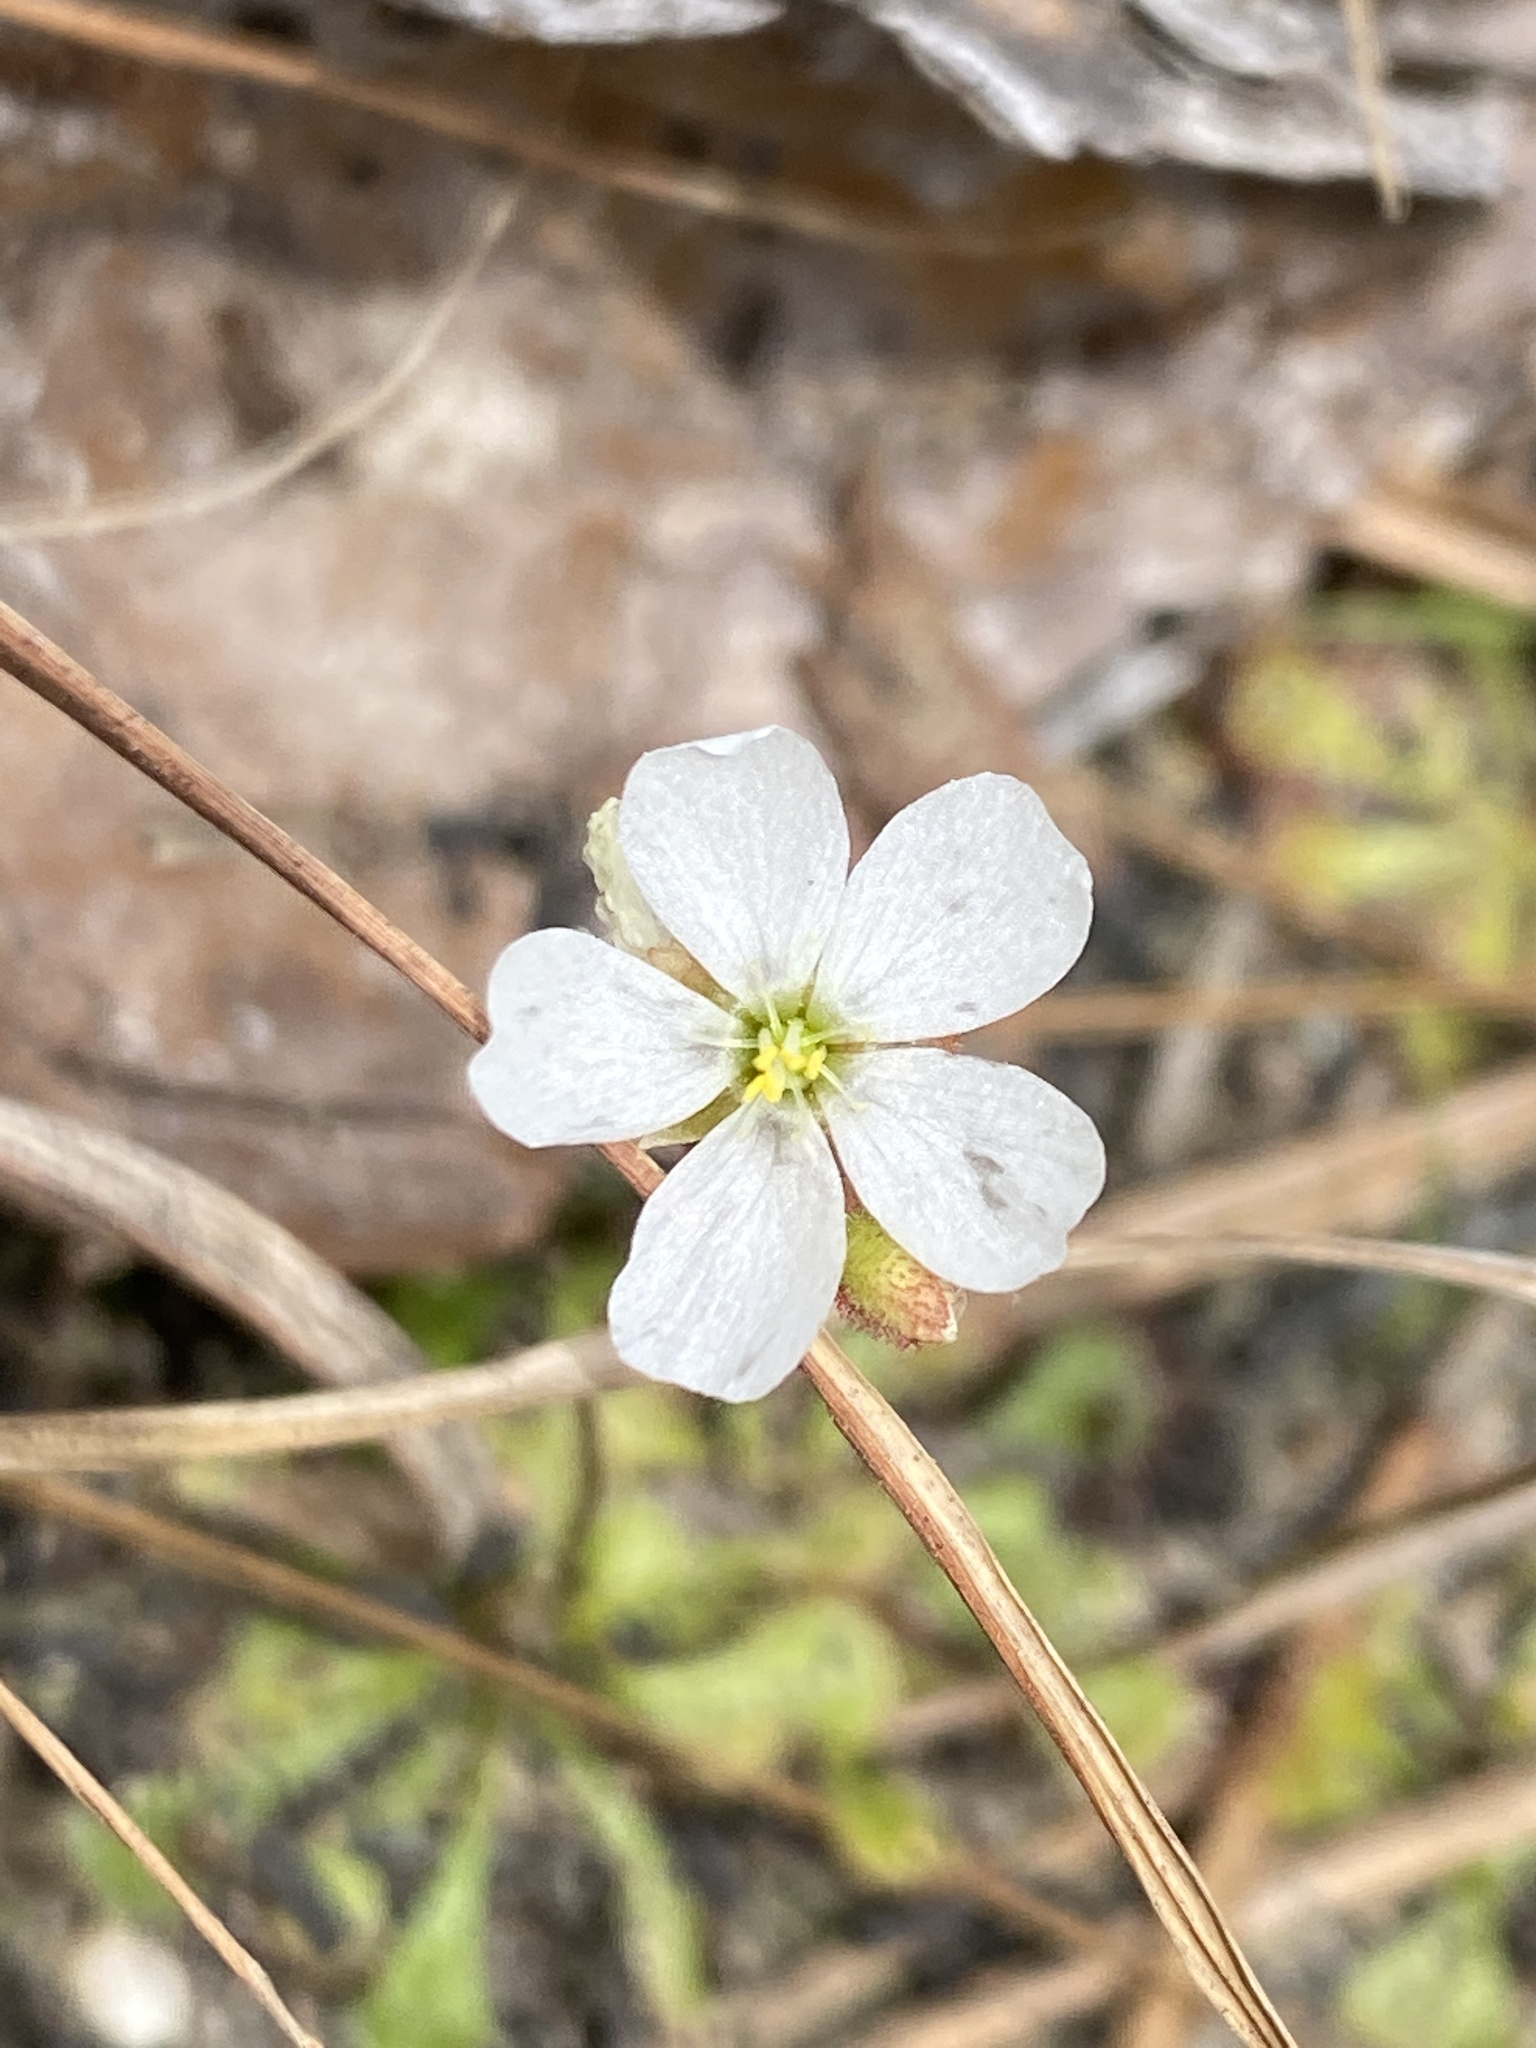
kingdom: Plantae
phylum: Tracheophyta
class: Magnoliopsida
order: Caryophyllales
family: Droseraceae
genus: Drosera
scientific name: Drosera brevifolia
